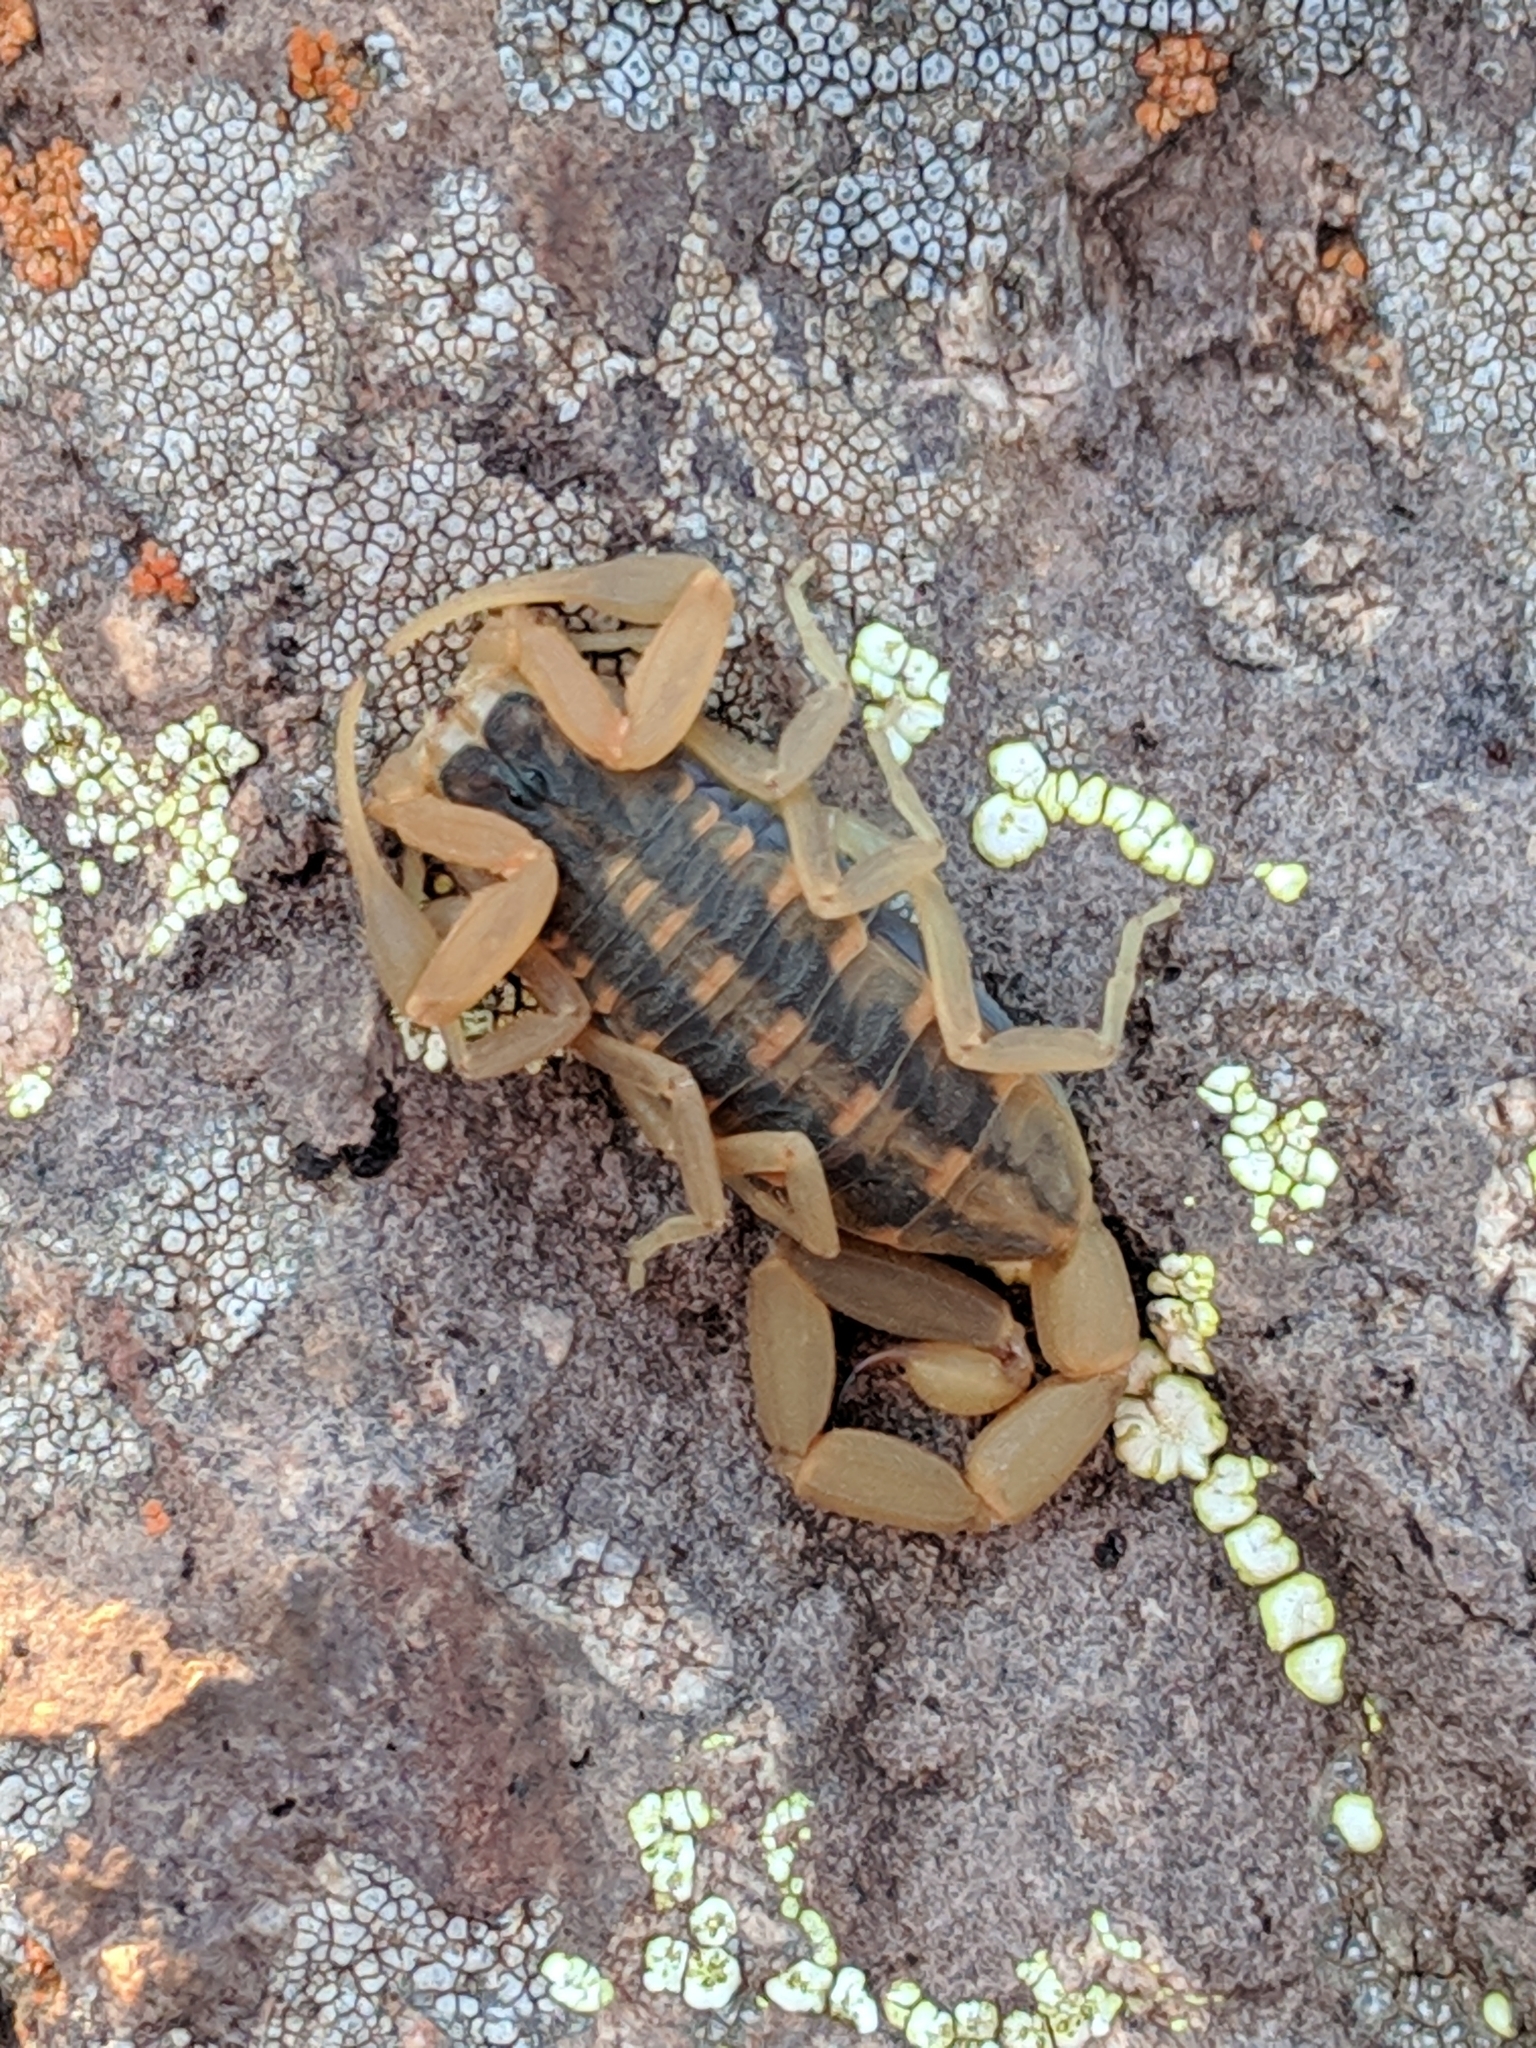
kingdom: Animalia
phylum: Arthropoda
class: Arachnida
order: Scorpiones
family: Buthidae
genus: Centruroides
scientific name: Centruroides vittatus
